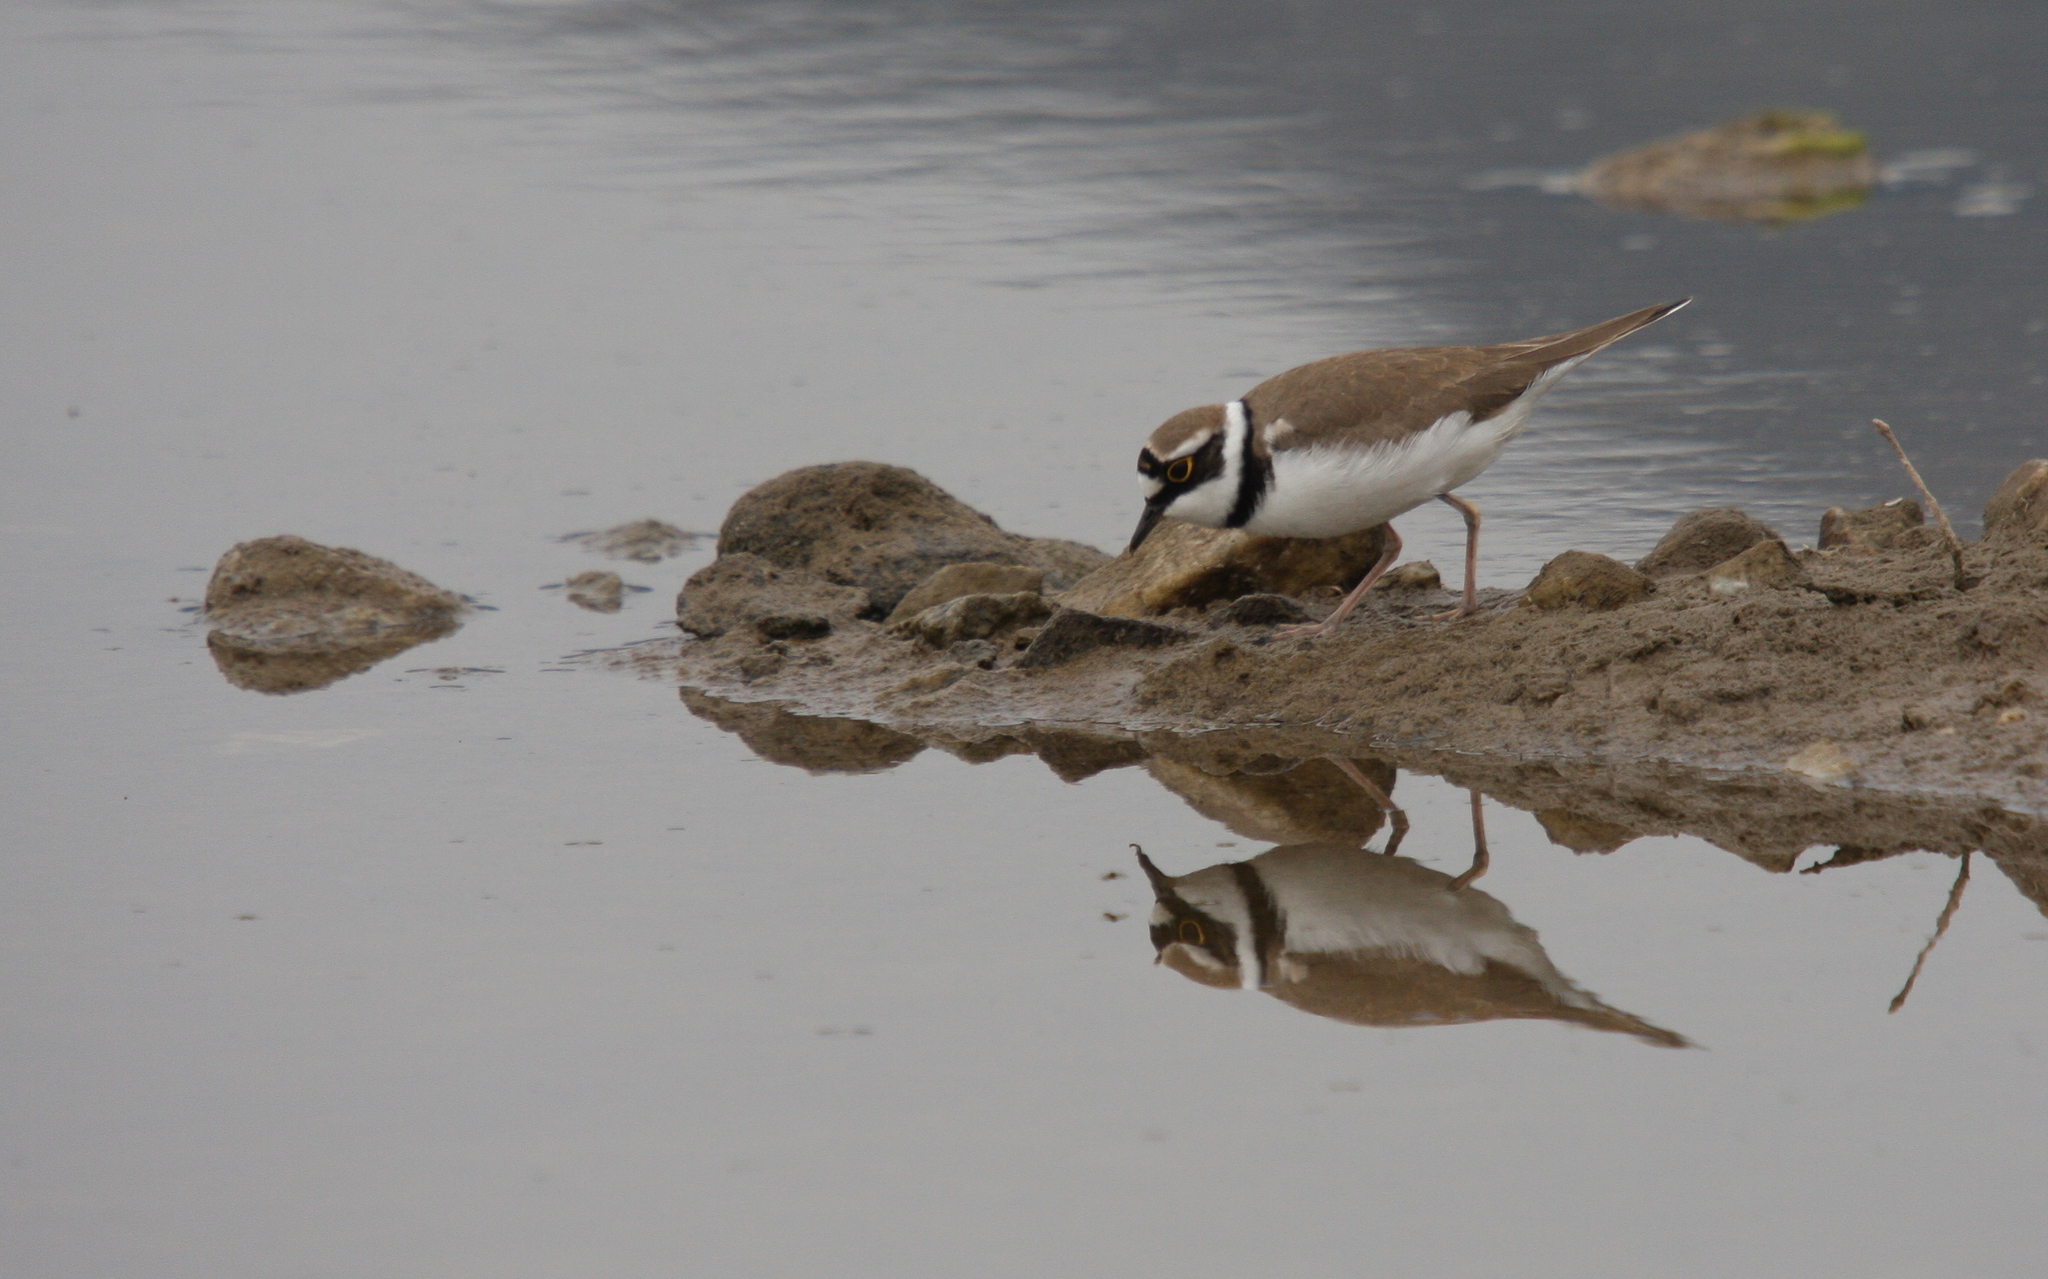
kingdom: Animalia
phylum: Chordata
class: Aves
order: Charadriiformes
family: Charadriidae
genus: Charadrius
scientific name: Charadrius dubius
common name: Little ringed plover
